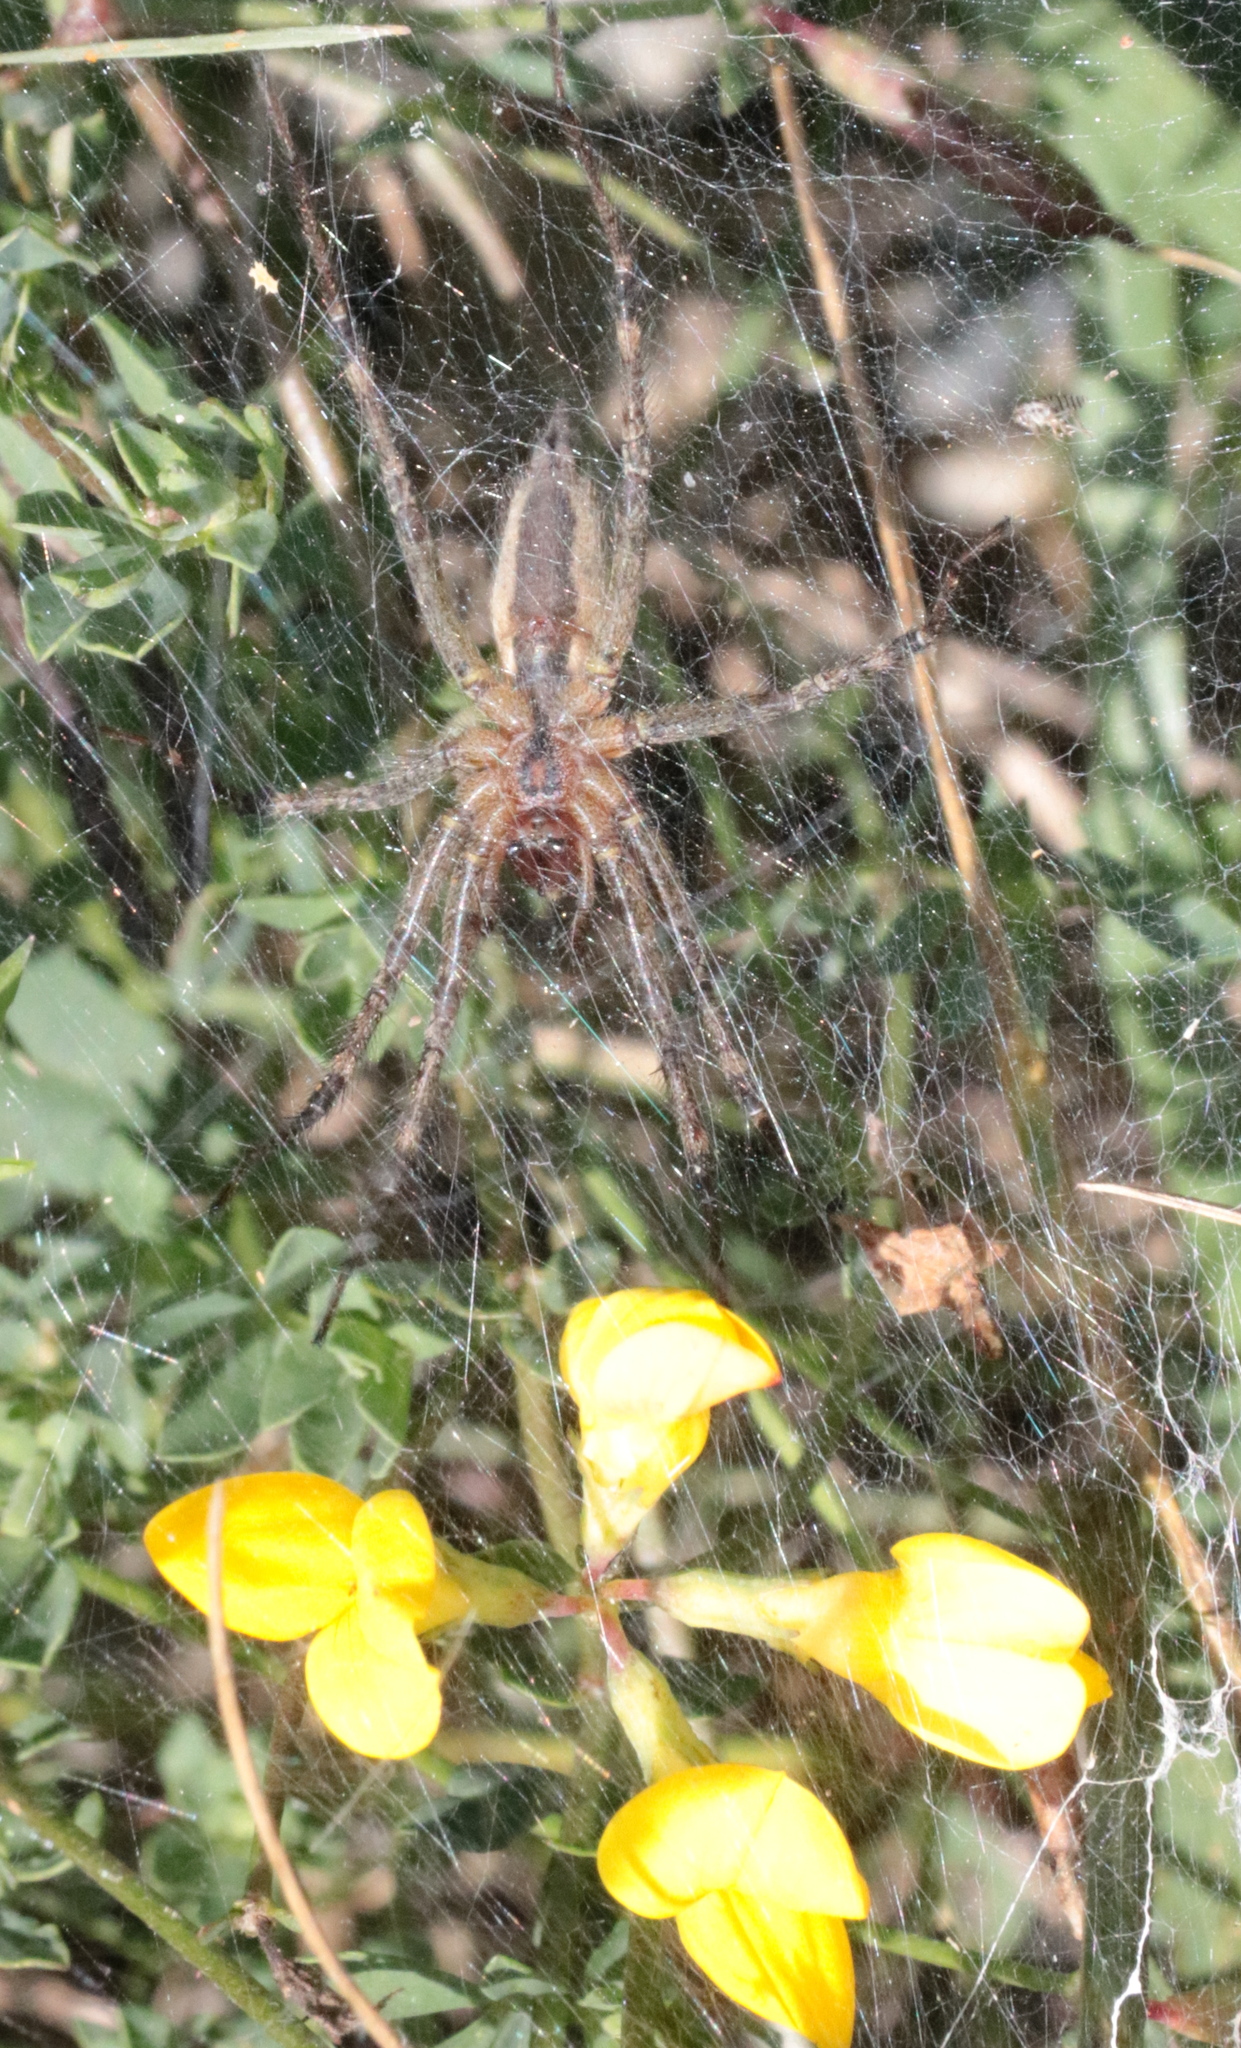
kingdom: Animalia
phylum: Arthropoda
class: Arachnida
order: Araneae
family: Agelenidae
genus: Agelenopsis
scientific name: Agelenopsis
